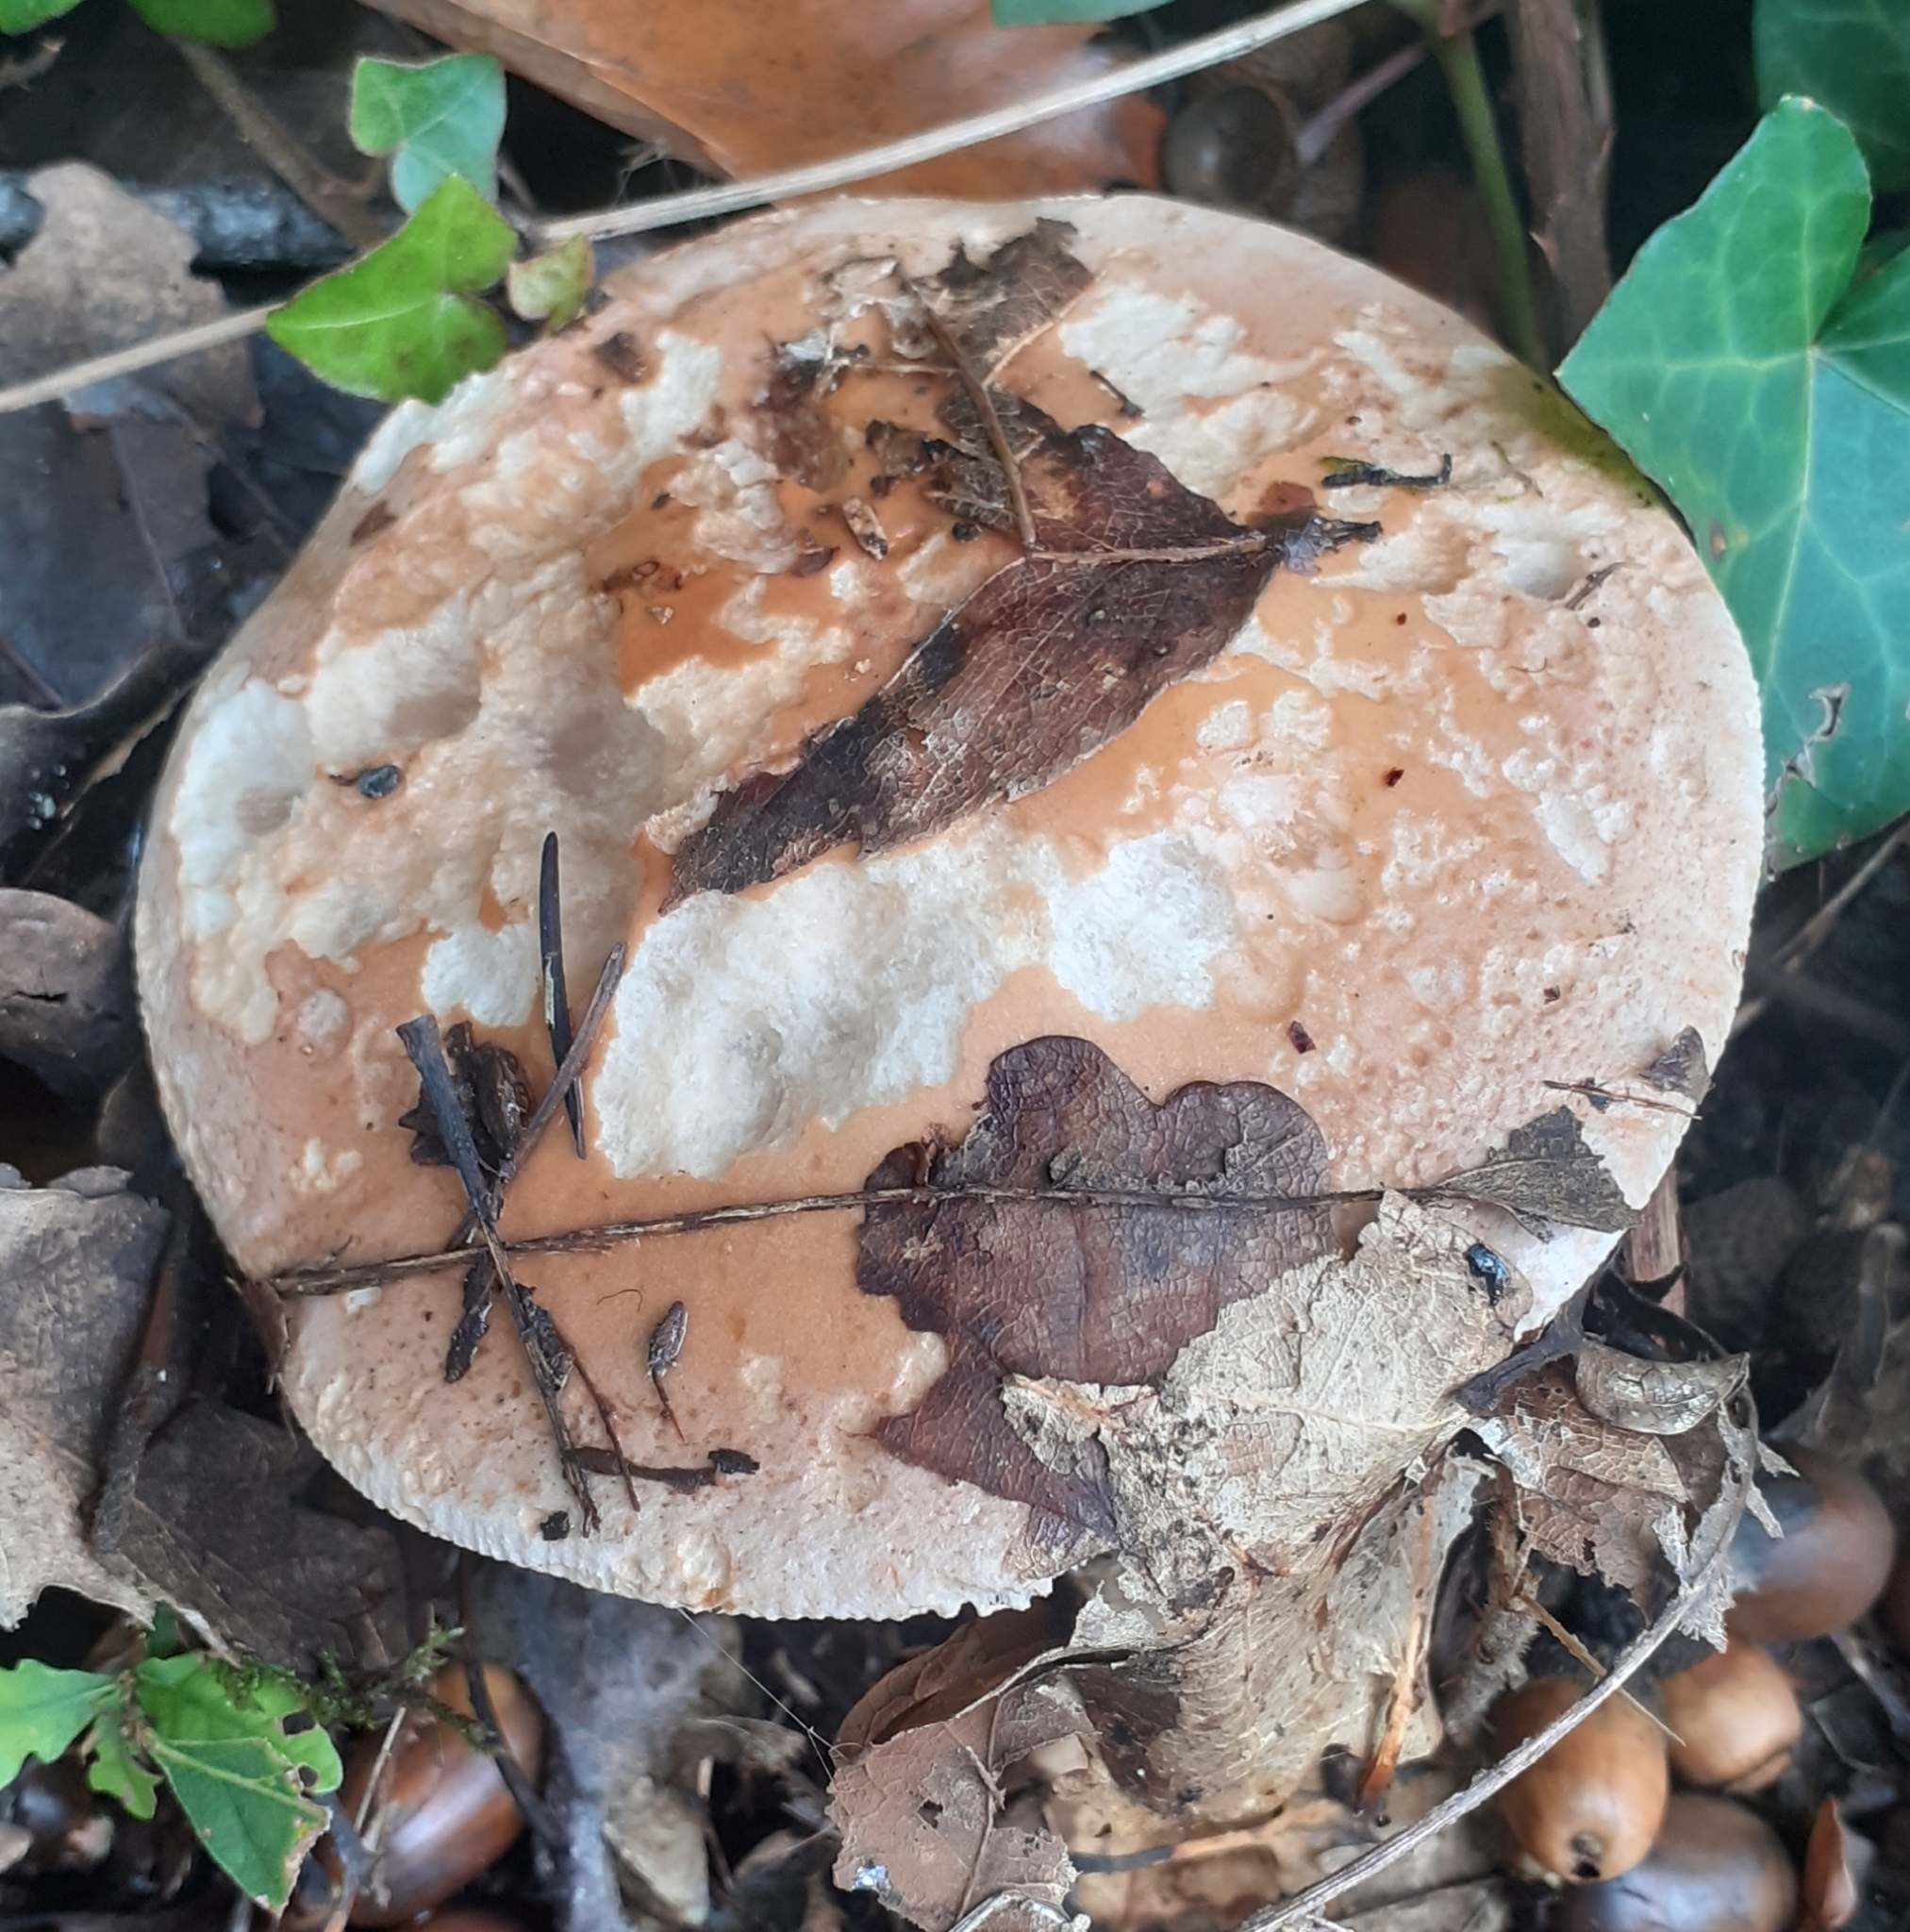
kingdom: Fungi
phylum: Basidiomycota
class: Agaricomycetes
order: Agaricales
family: Hymenogastraceae
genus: Hebeloma
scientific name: Hebeloma sinapizans
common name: Bitter poisonpie
